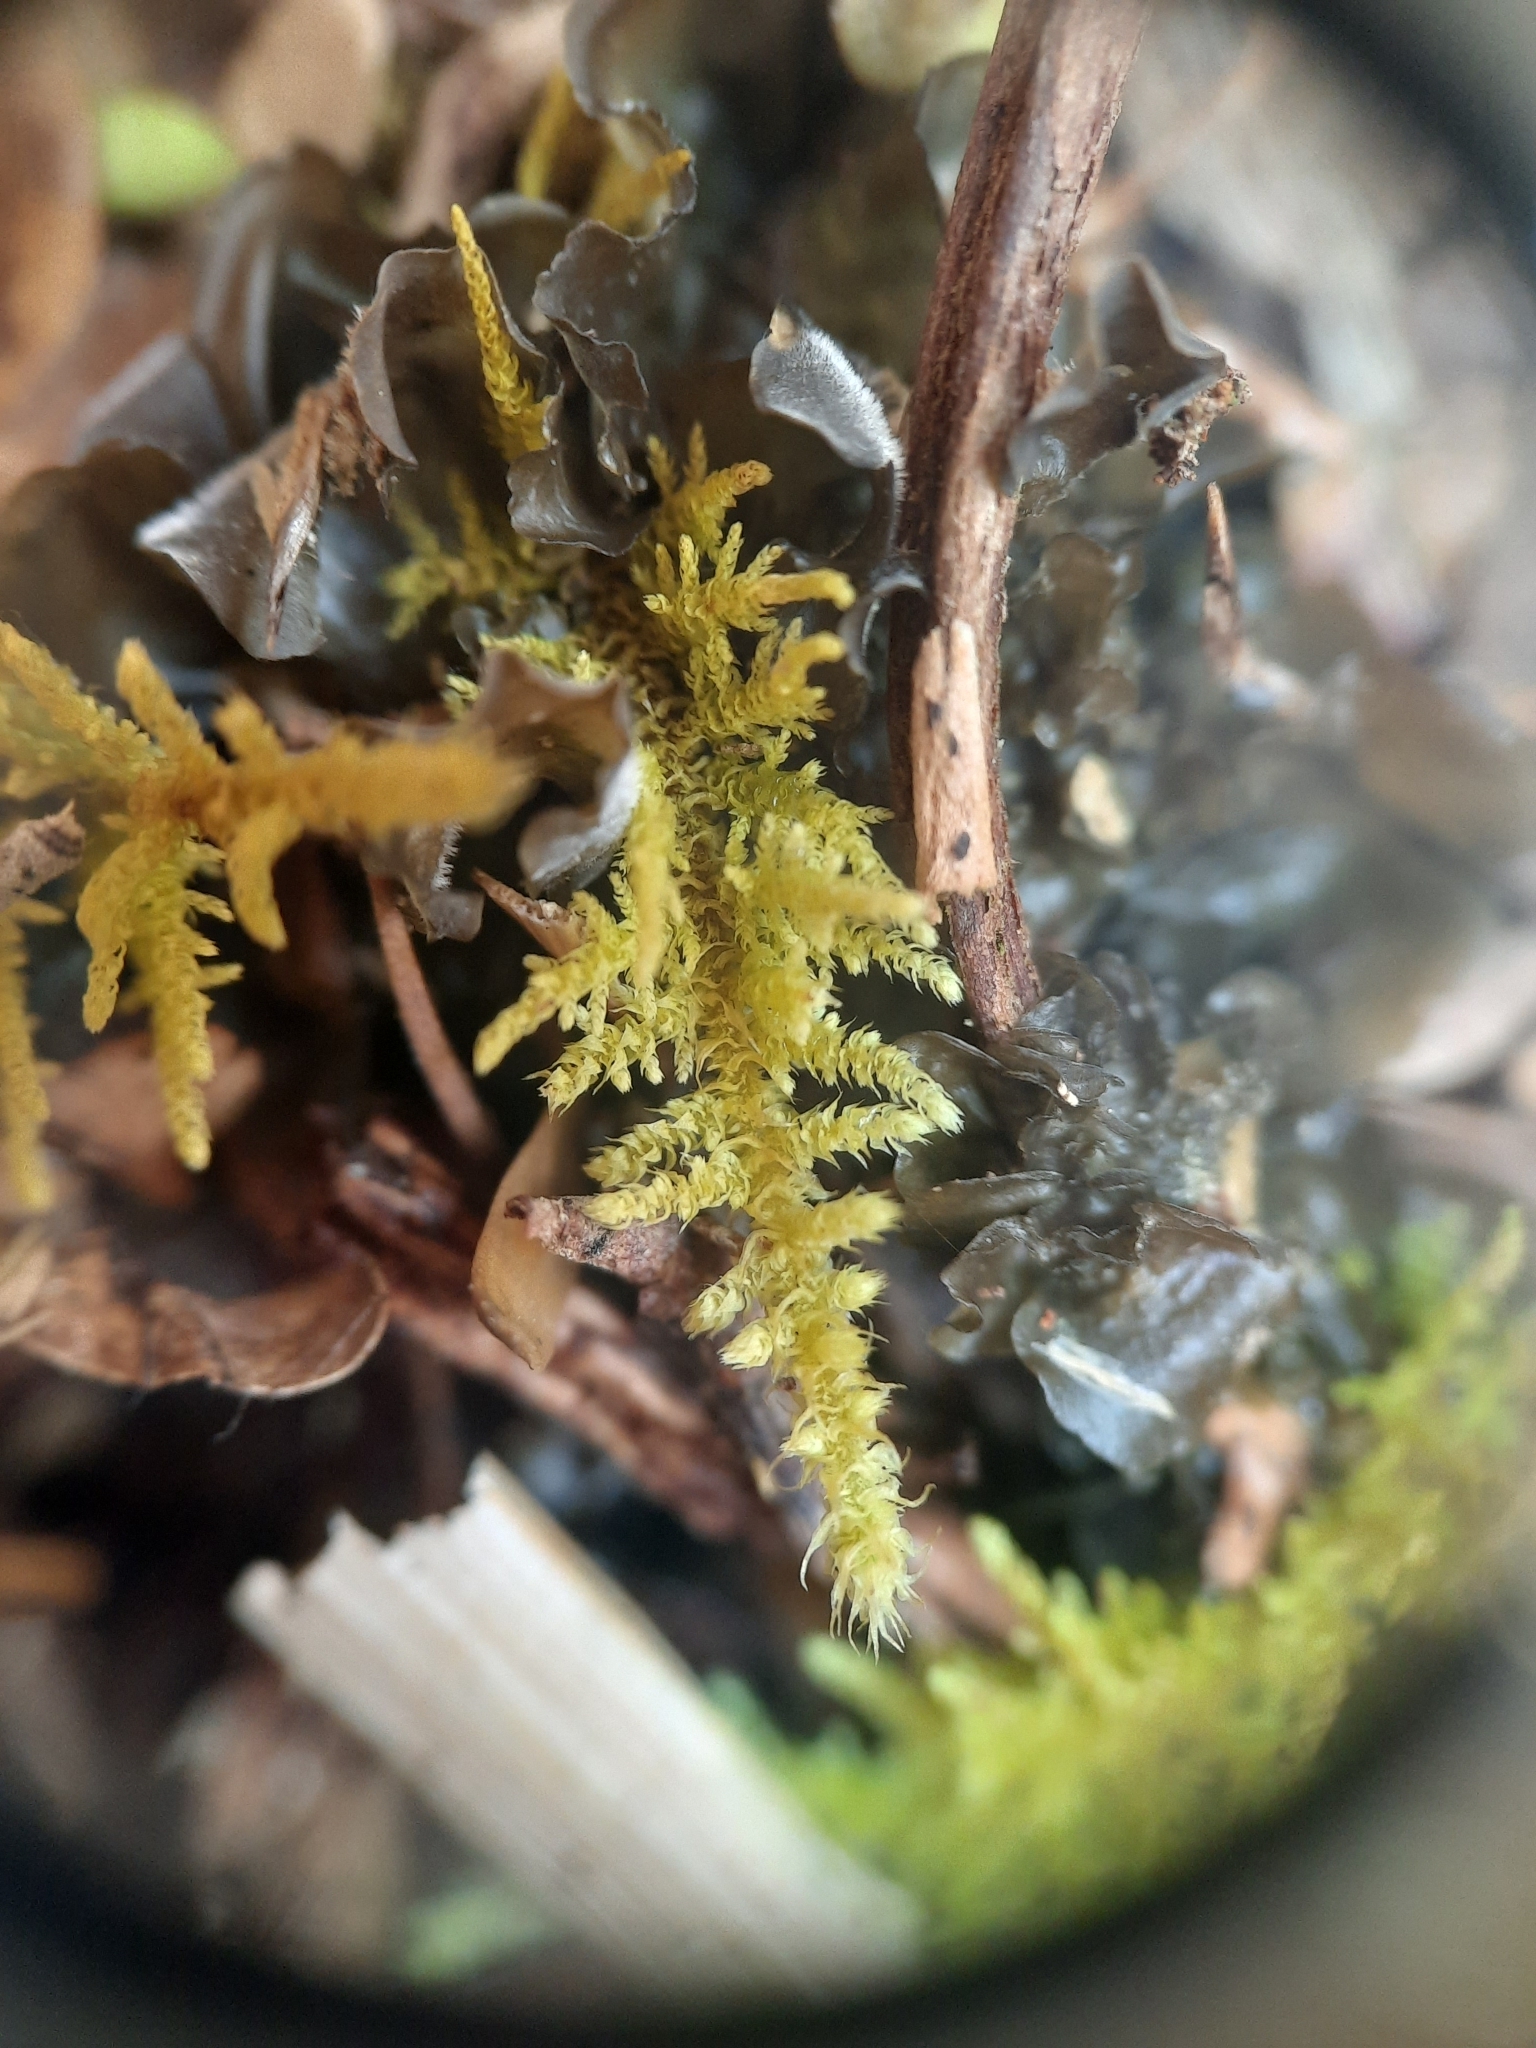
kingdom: Plantae
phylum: Bryophyta
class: Bryopsida
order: Hypnales
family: Thuidiaceae
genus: Thuidiopsis
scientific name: Thuidiopsis furfurosa
